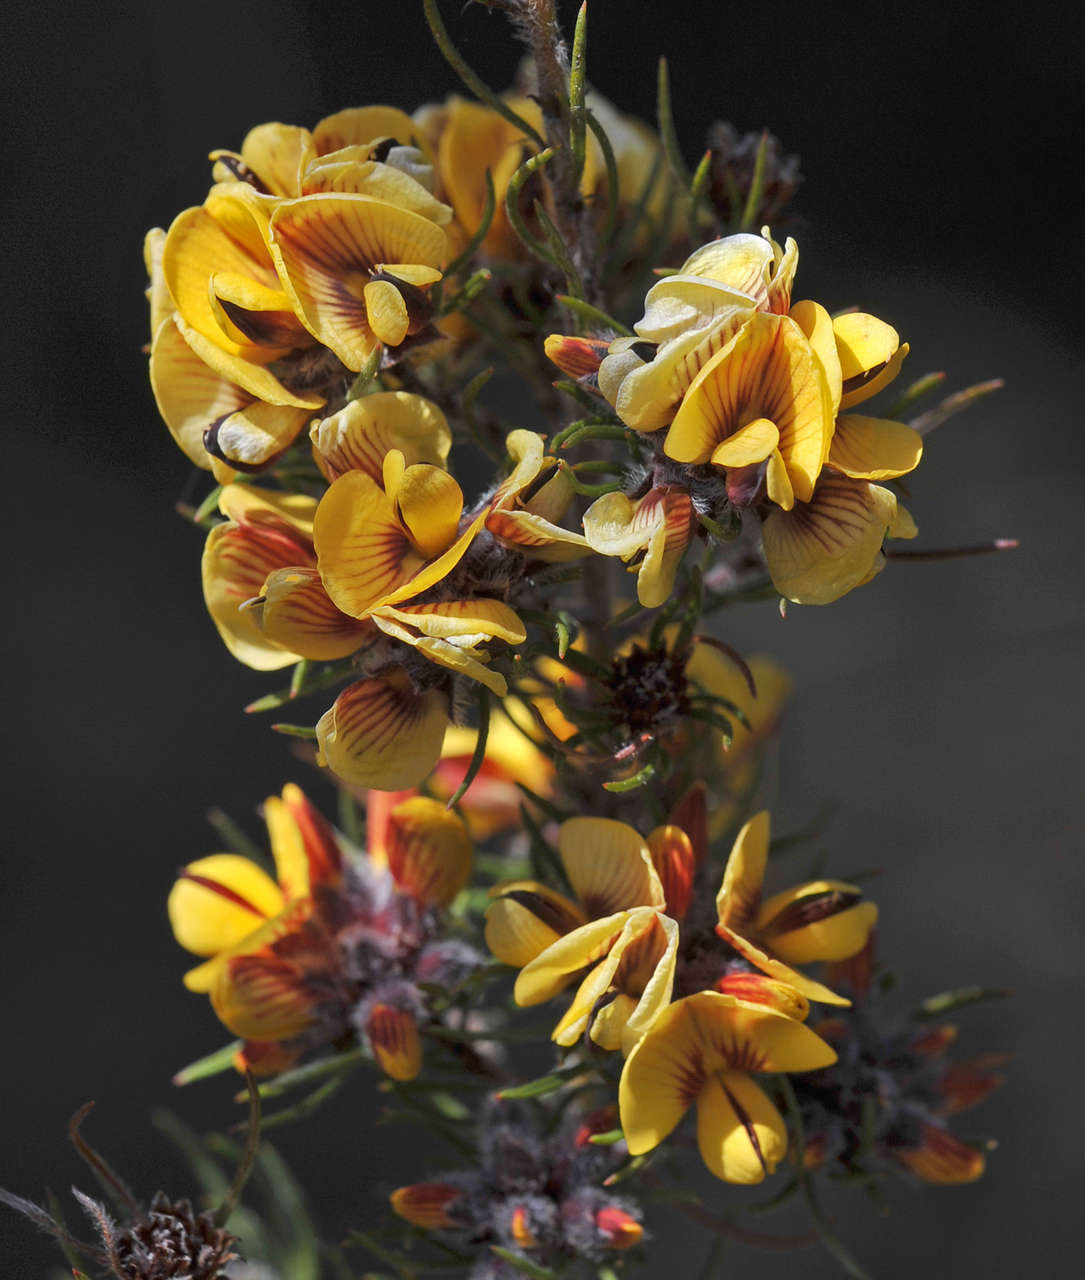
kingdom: Plantae
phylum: Tracheophyta
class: Magnoliopsida
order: Fabales
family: Fabaceae
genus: Pultenaea
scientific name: Pultenaea mollis
